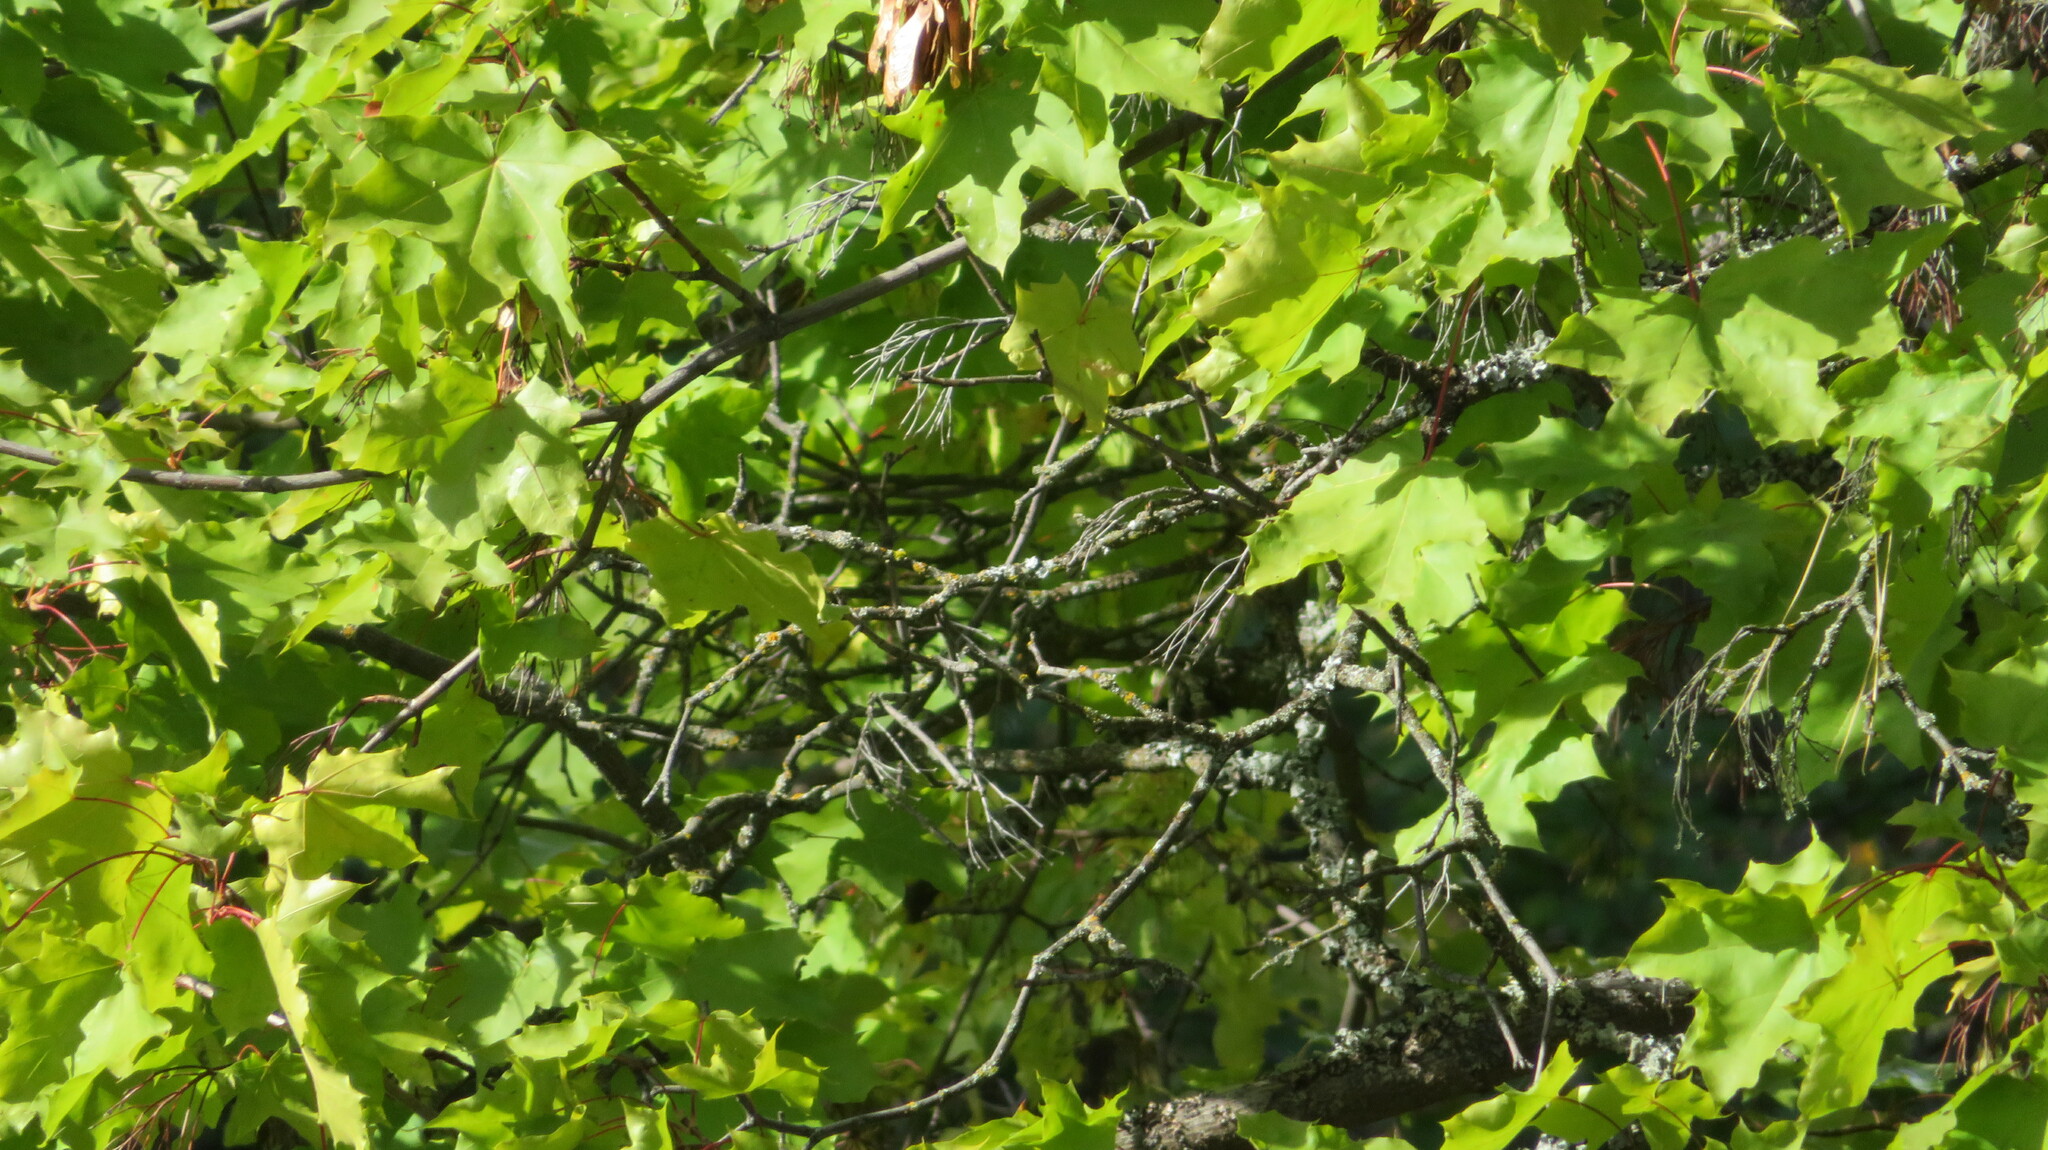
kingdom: Plantae
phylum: Tracheophyta
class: Magnoliopsida
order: Sapindales
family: Sapindaceae
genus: Acer
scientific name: Acer platanoides
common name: Norway maple
